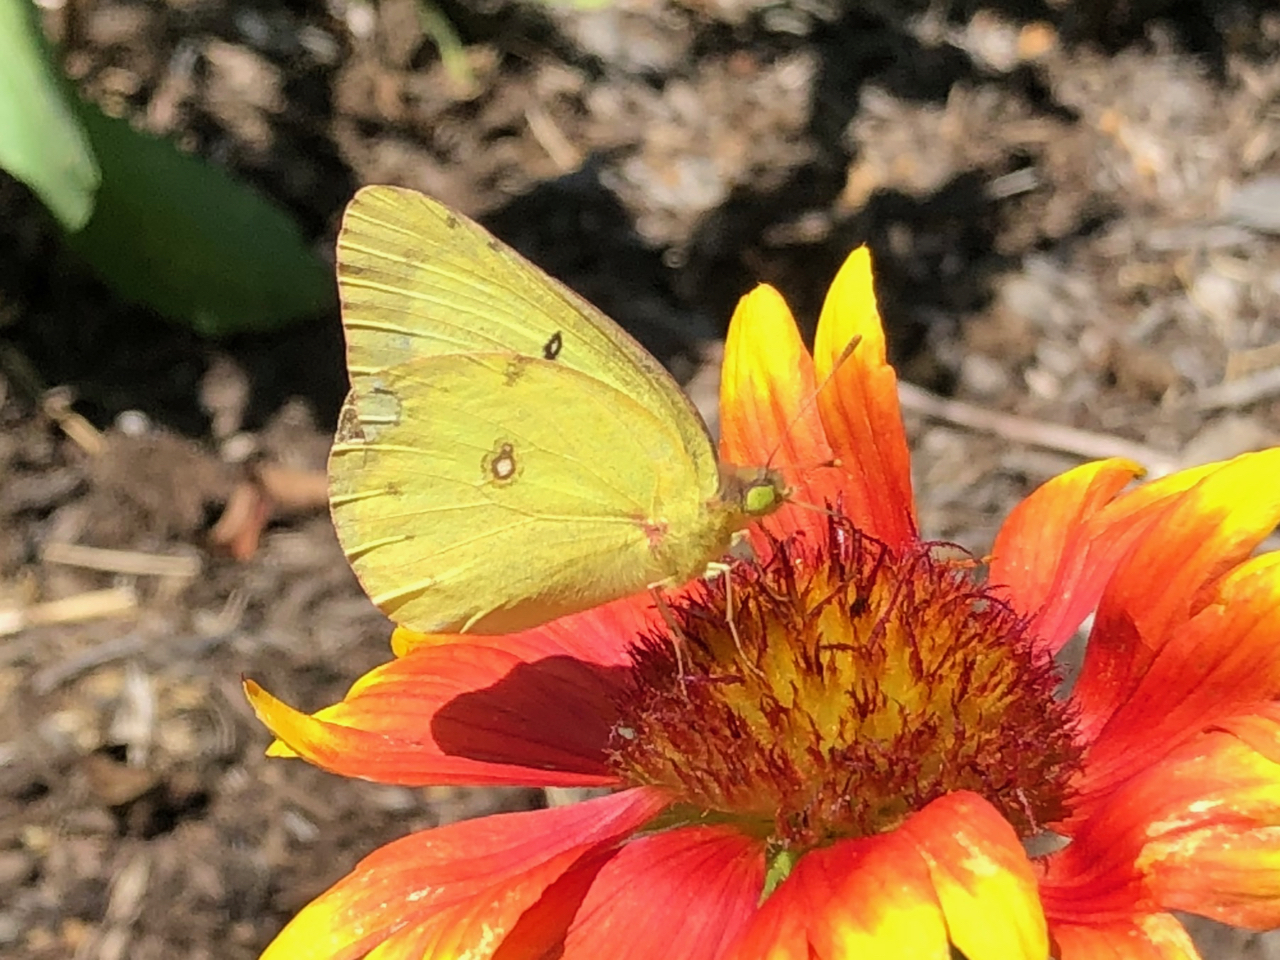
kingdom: Animalia
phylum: Arthropoda
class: Insecta
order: Lepidoptera
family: Pieridae
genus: Colias
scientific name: Colias philodice
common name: Clouded sulphur
